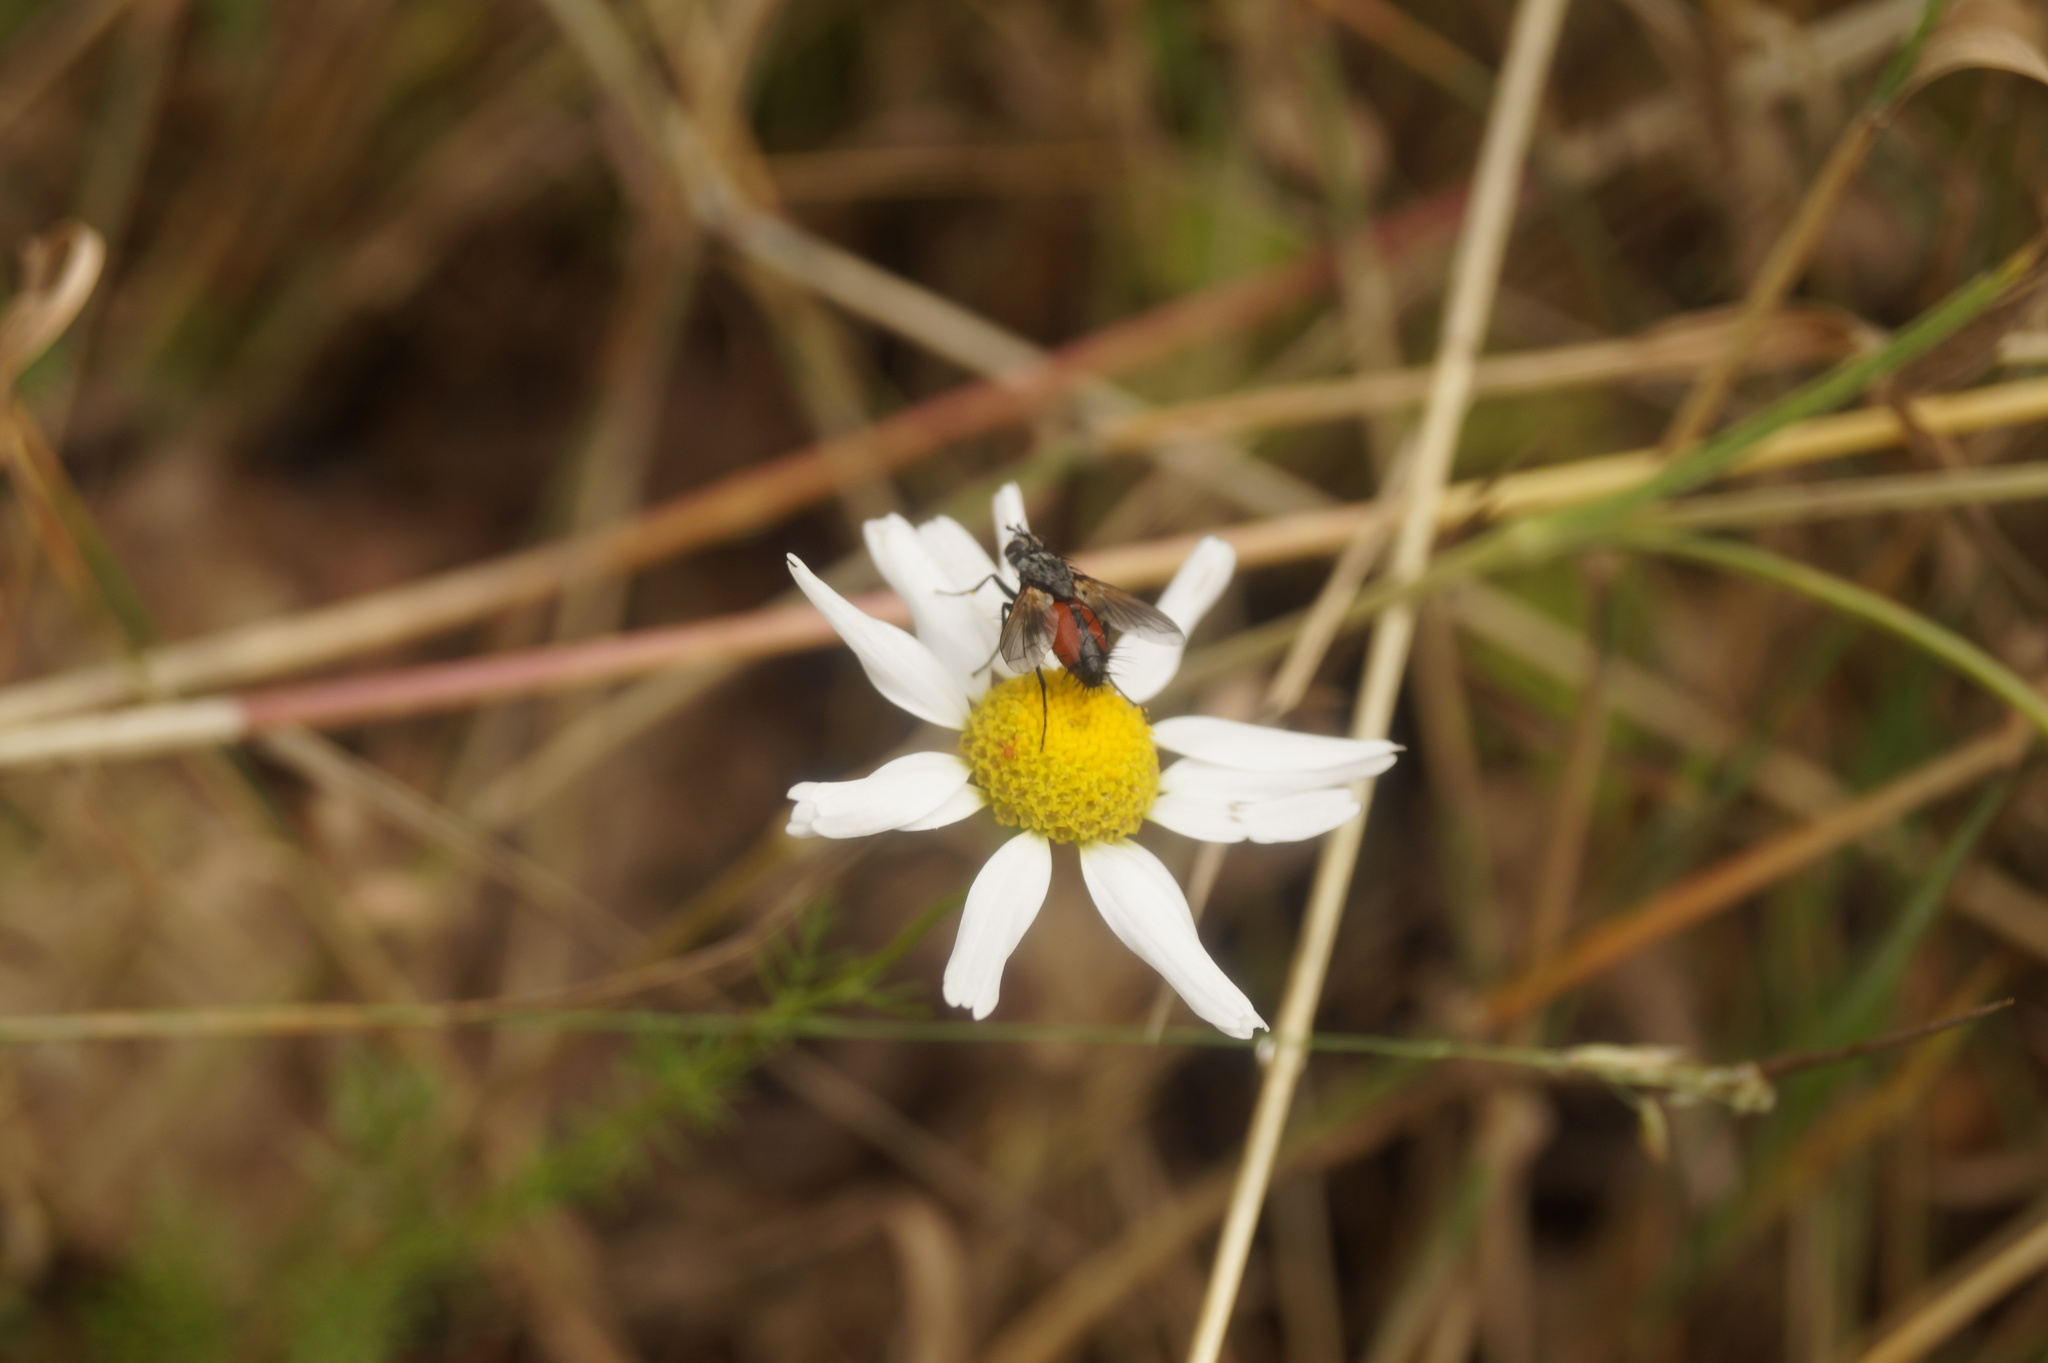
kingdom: Animalia
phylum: Arthropoda
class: Insecta
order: Diptera
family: Tachinidae
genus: Eriothrix
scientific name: Eriothrix rufomaculatus
